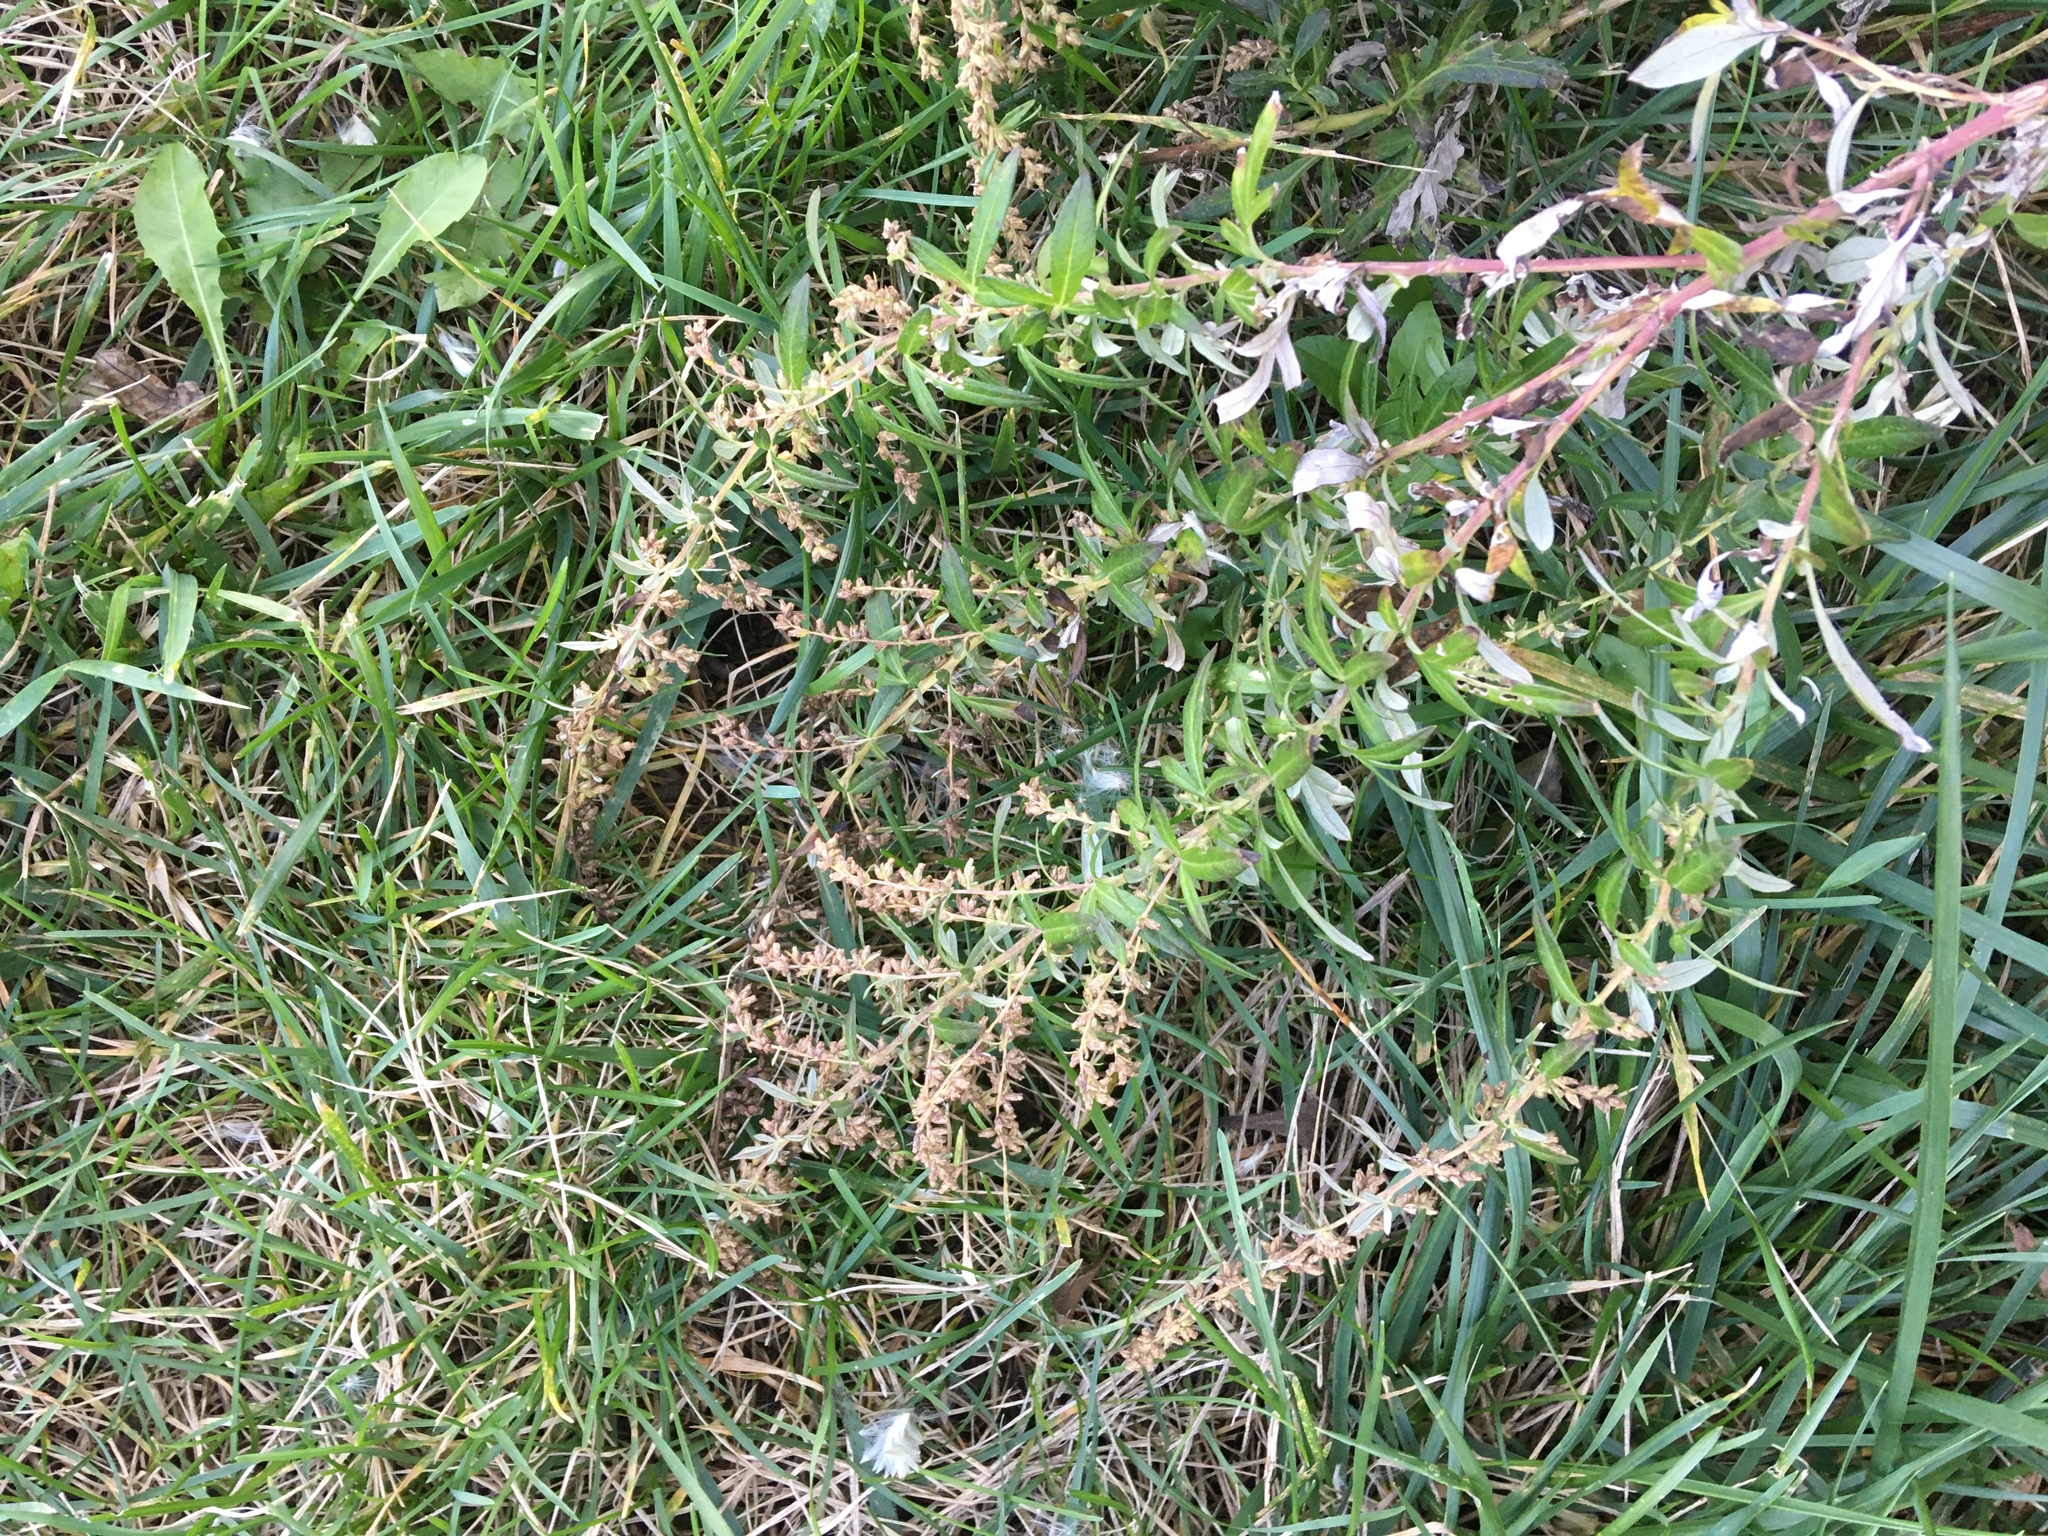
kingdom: Plantae
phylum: Tracheophyta
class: Magnoliopsida
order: Asterales
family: Asteraceae
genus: Artemisia
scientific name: Artemisia vulgaris
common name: Mugwort
